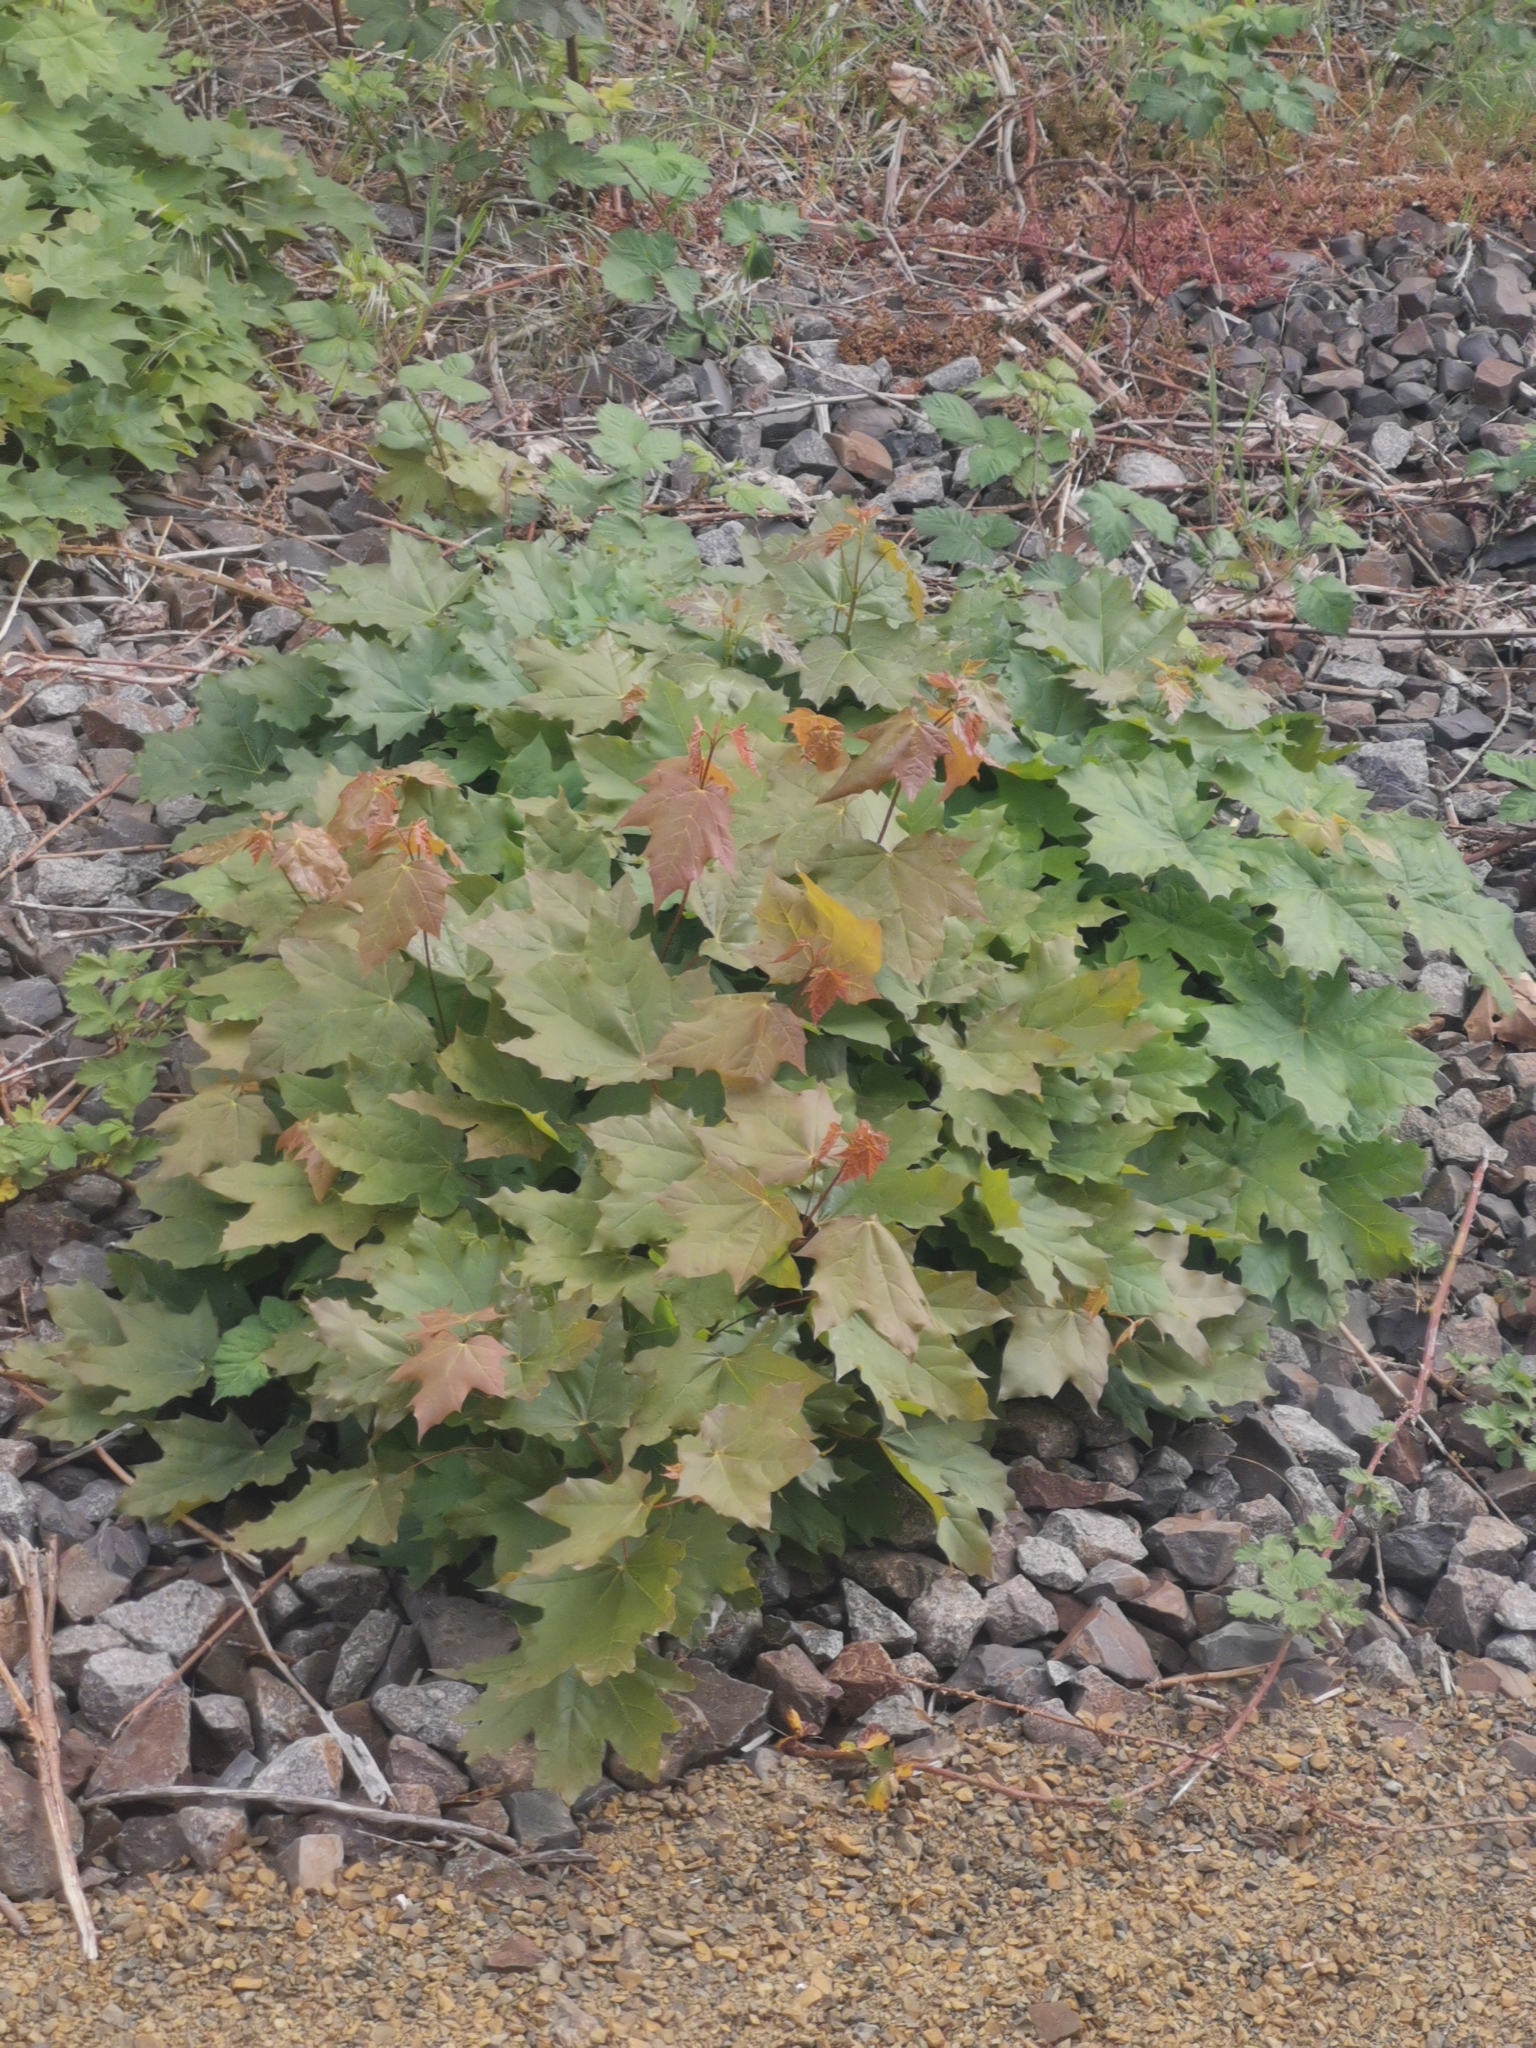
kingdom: Plantae
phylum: Tracheophyta
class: Magnoliopsida
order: Sapindales
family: Sapindaceae
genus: Acer
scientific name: Acer platanoides
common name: Norway maple
